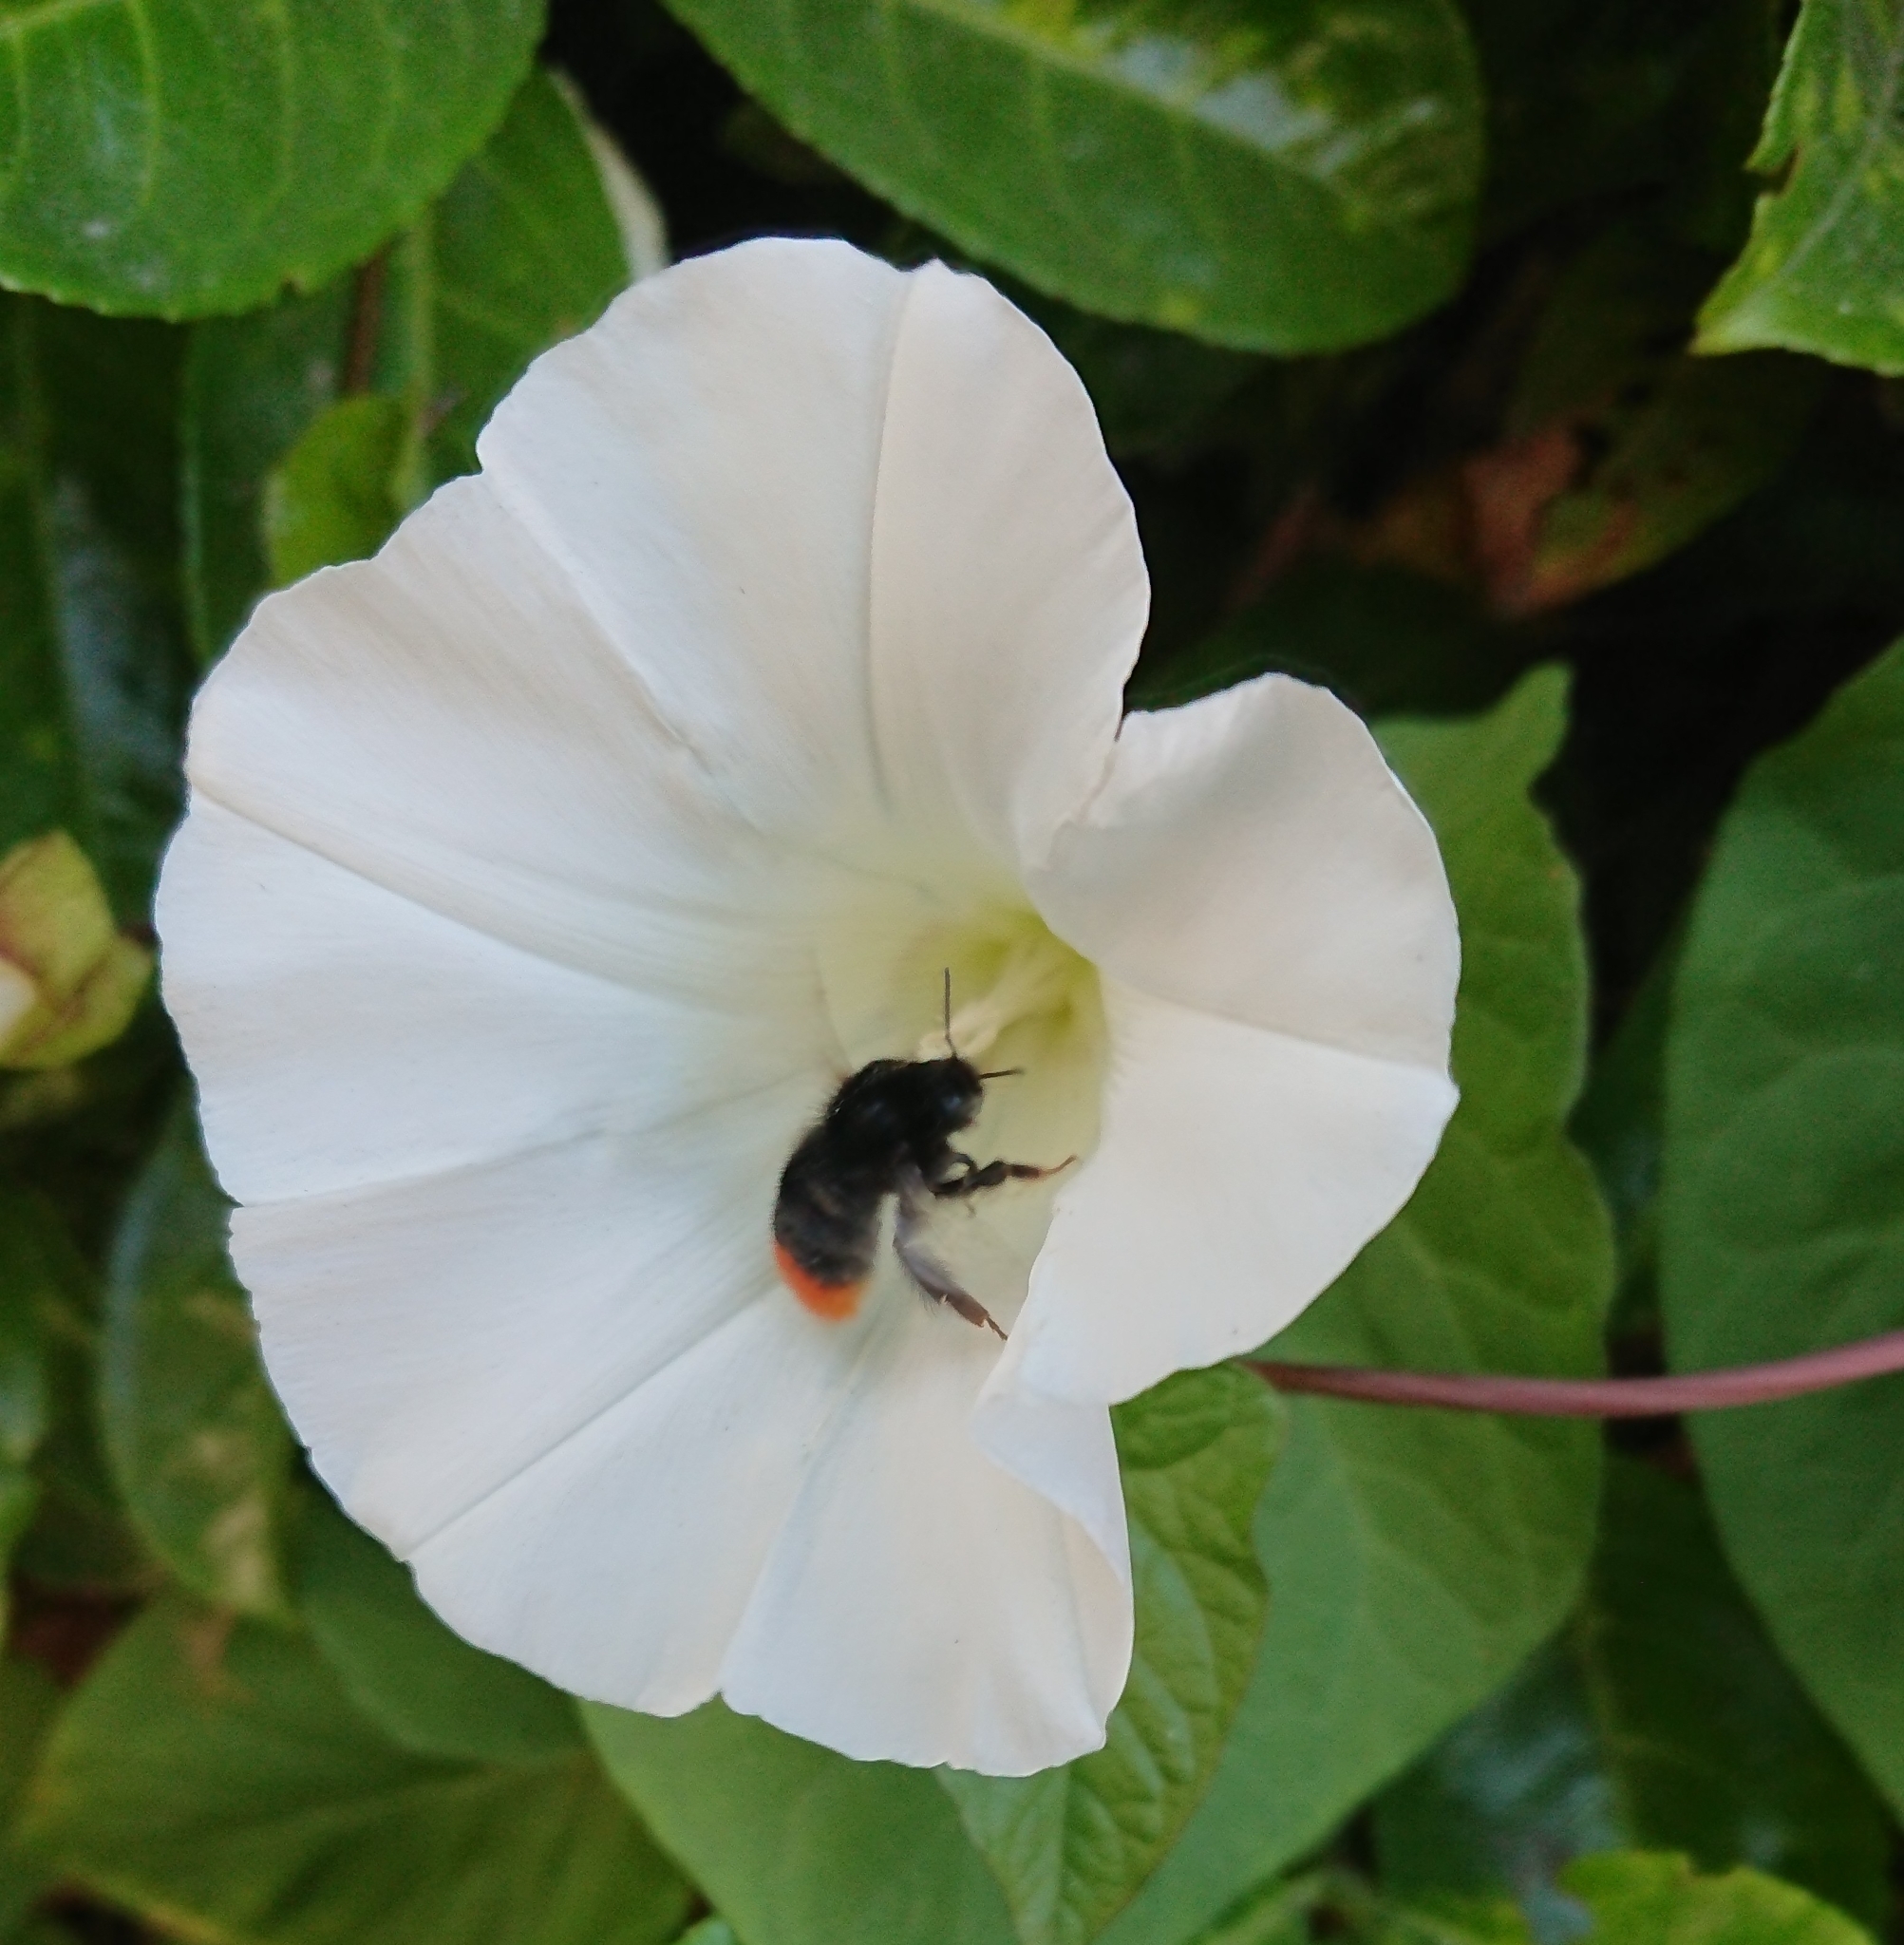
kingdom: Animalia
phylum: Arthropoda
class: Insecta
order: Hymenoptera
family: Apidae
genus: Bombus
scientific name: Bombus lapidarius
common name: Large red-tailed humble-bee
